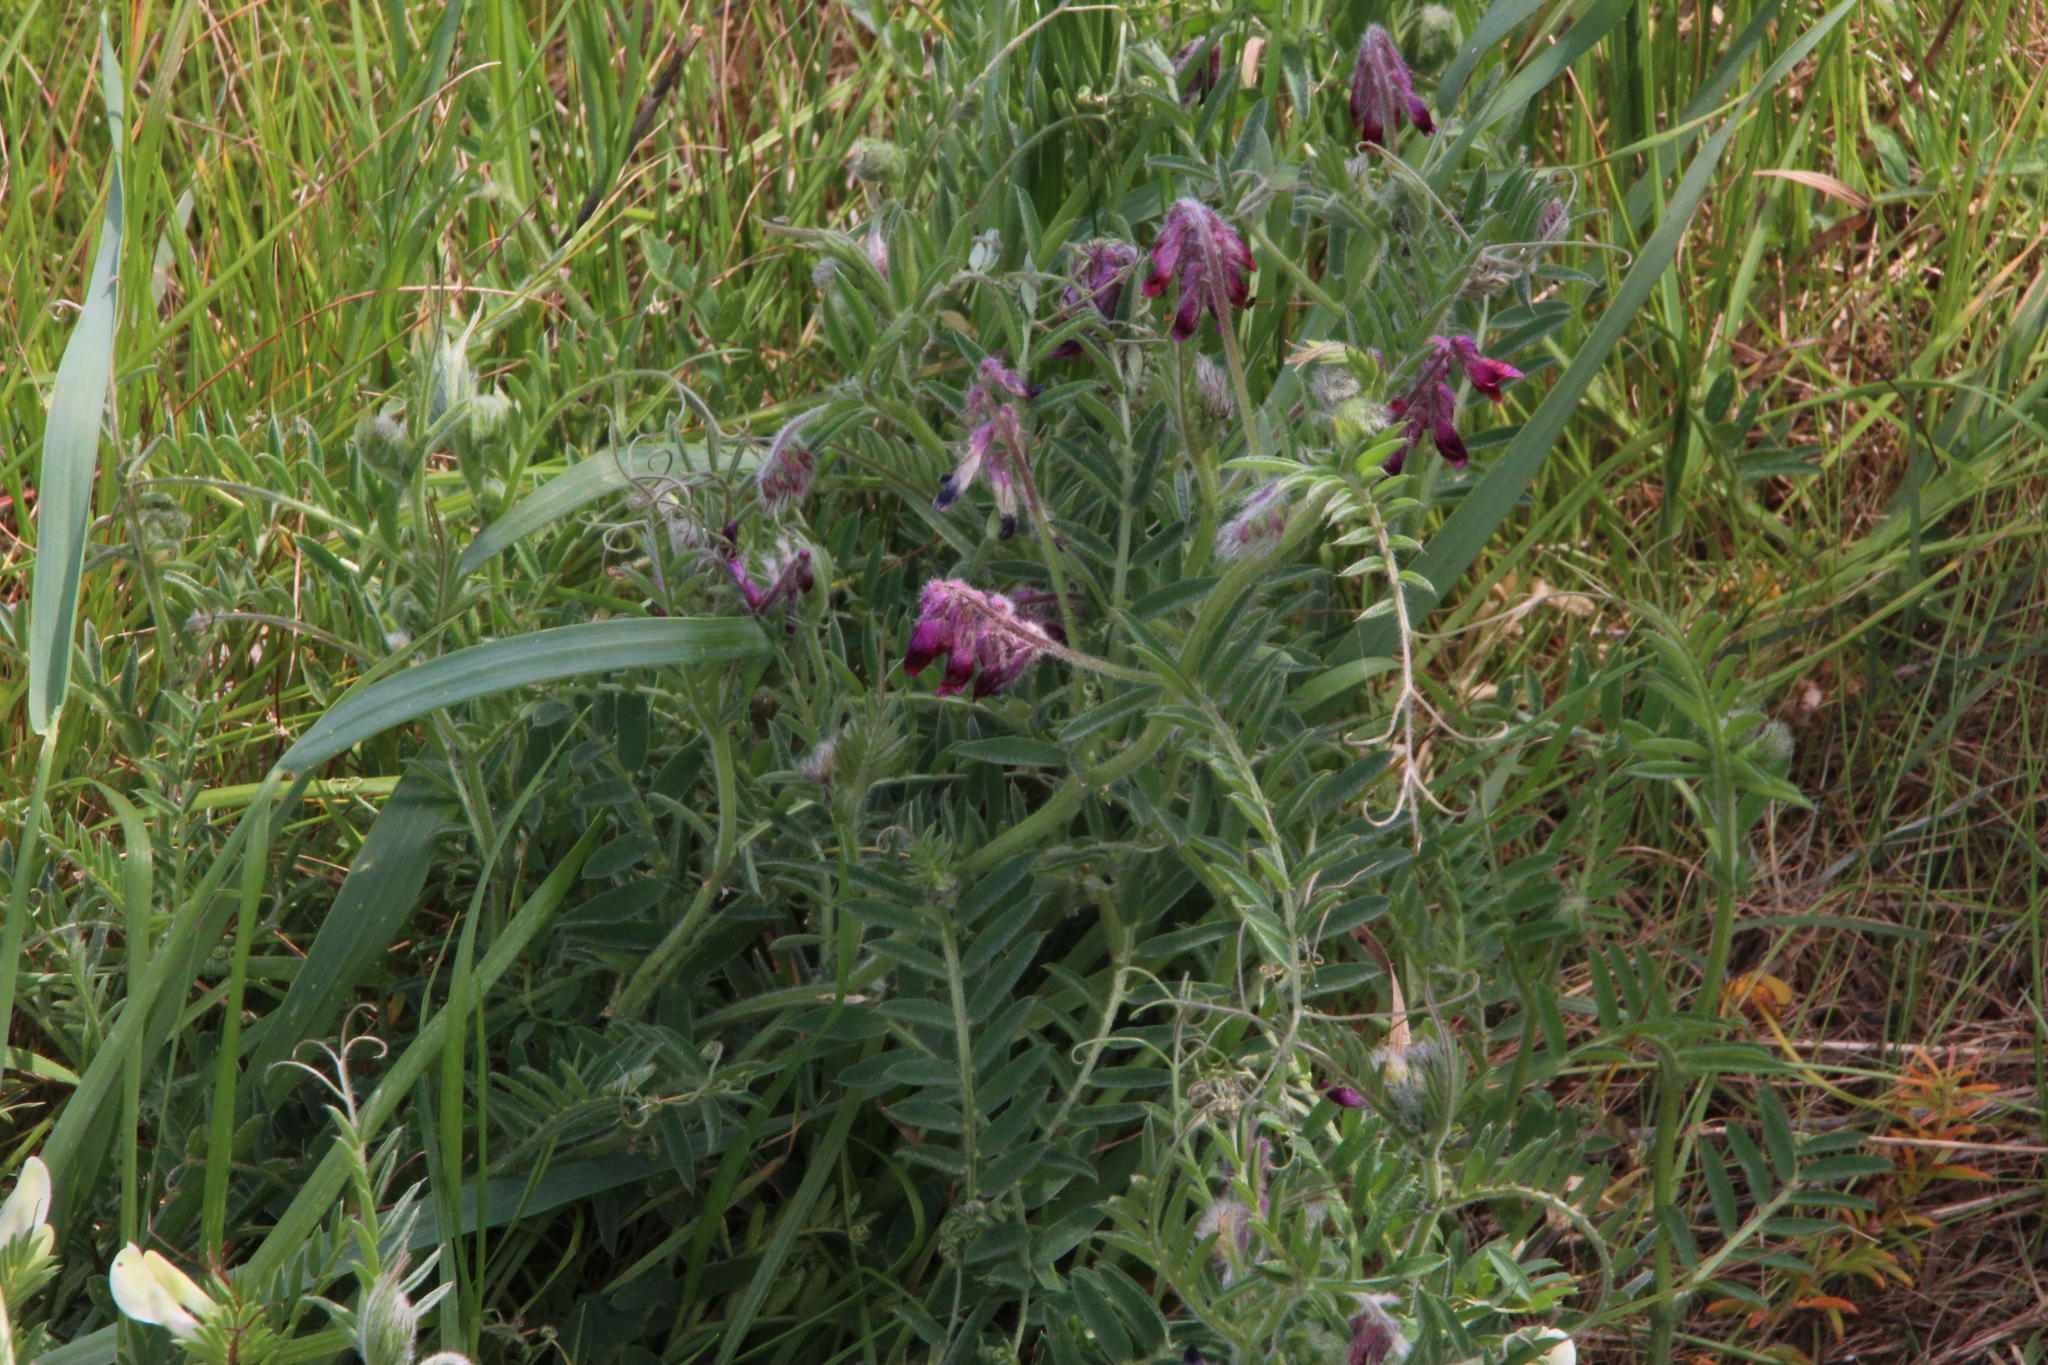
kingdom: Plantae
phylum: Tracheophyta
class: Magnoliopsida
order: Fabales
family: Fabaceae
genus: Vicia
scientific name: Vicia benghalensis
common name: Purple vetch
